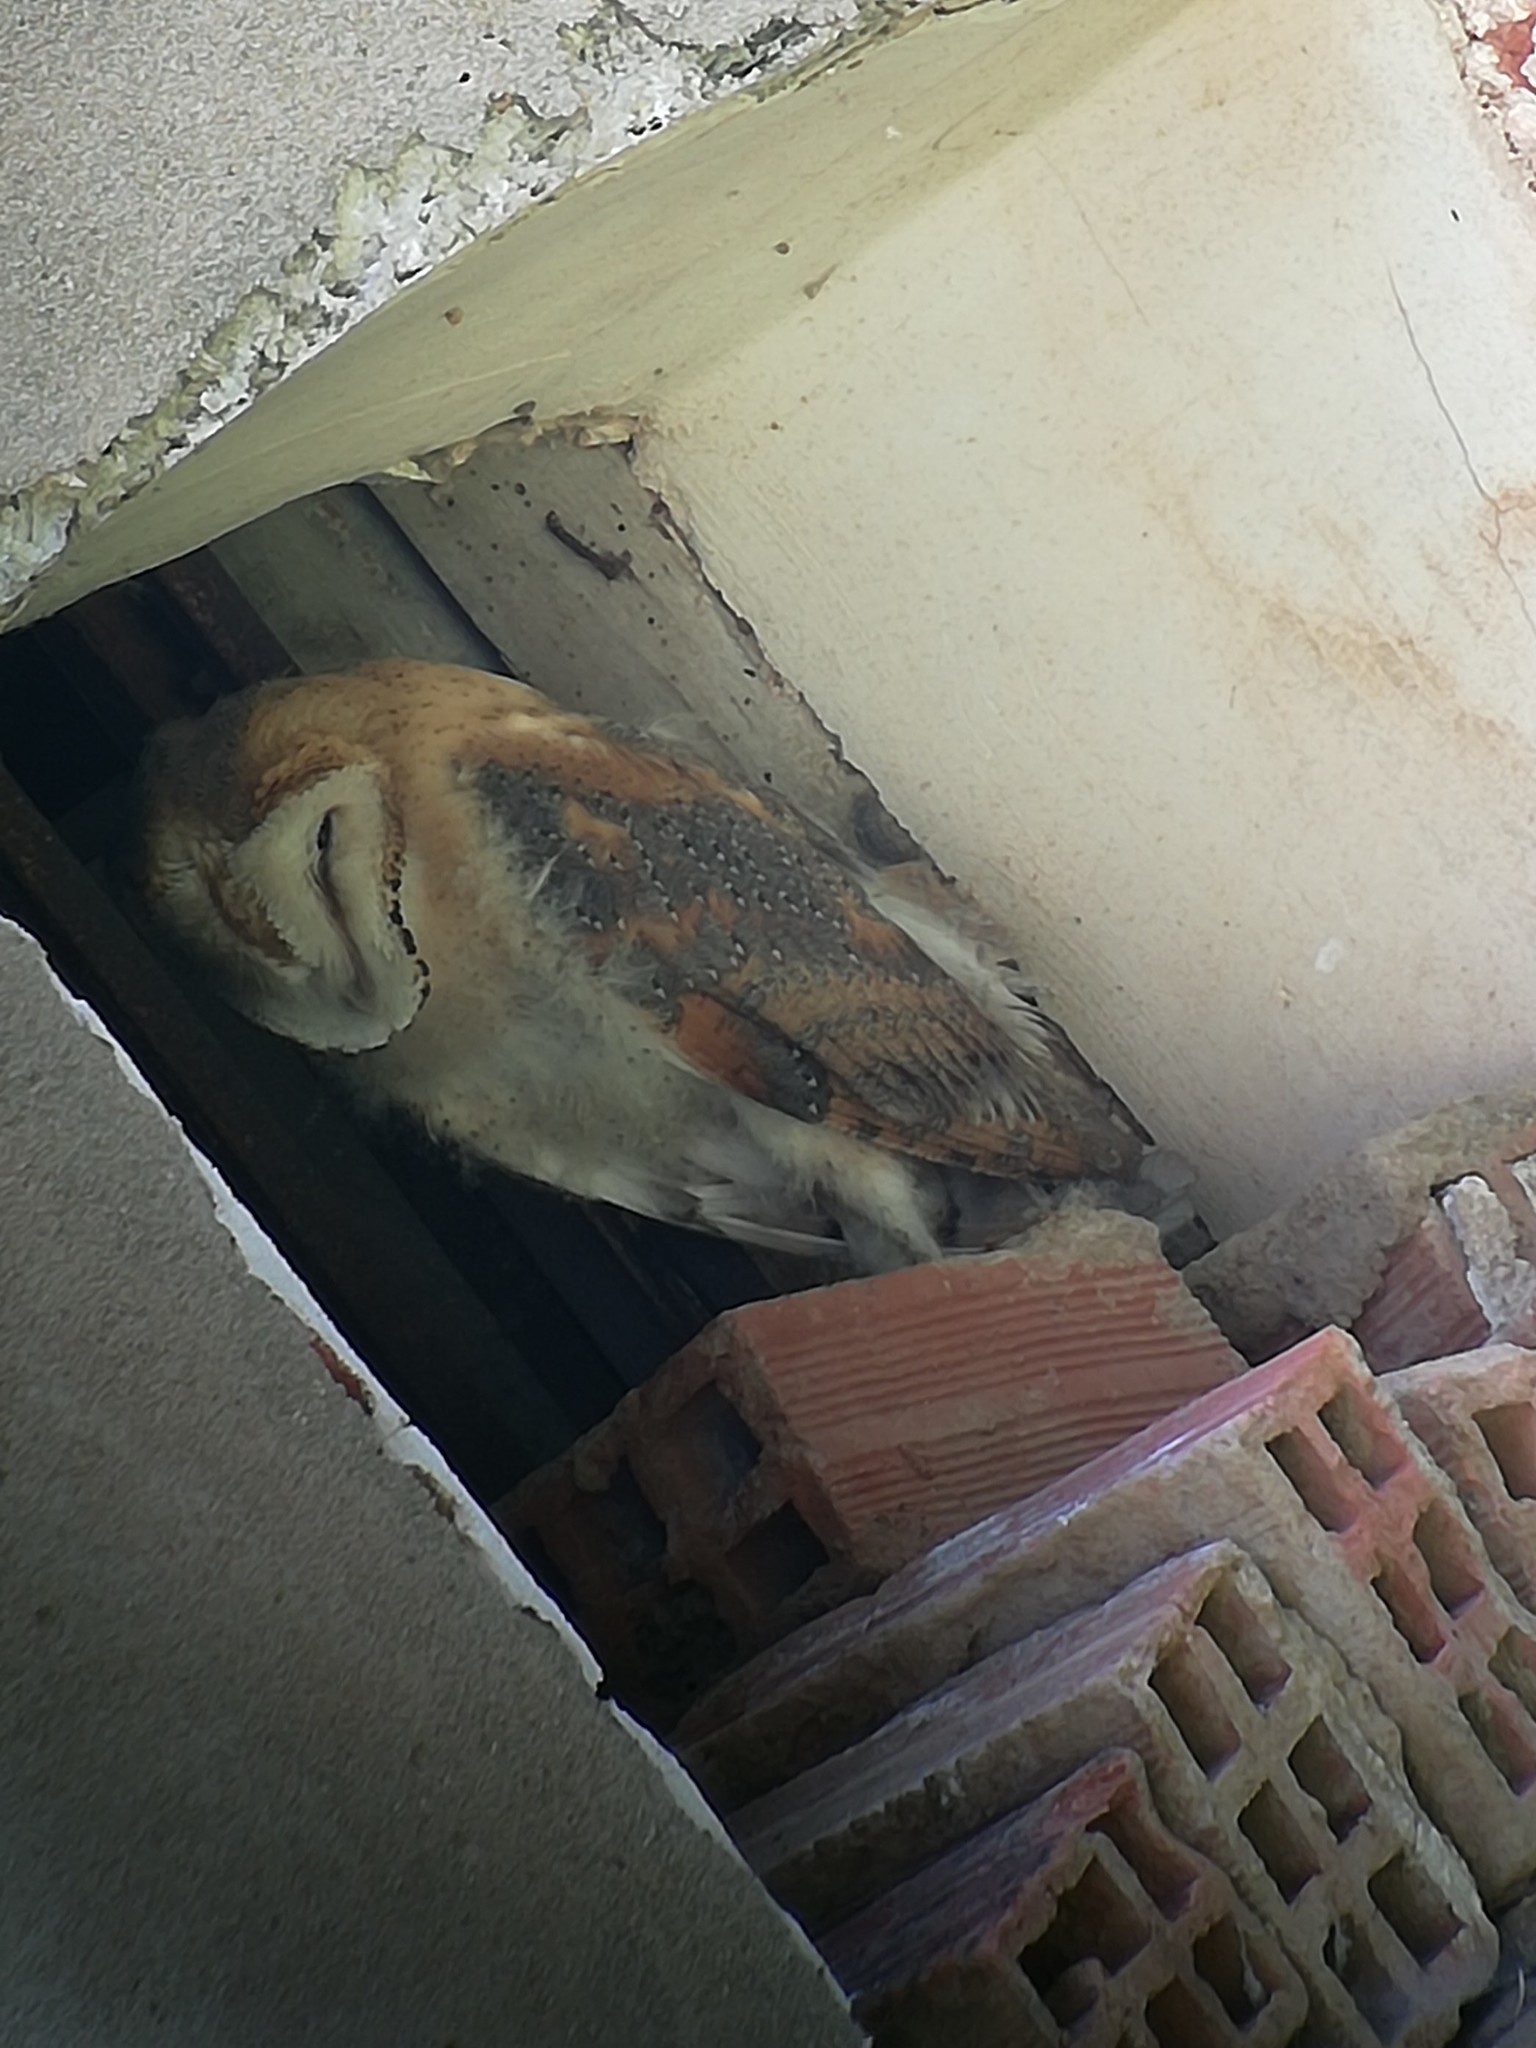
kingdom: Animalia
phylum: Chordata
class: Aves
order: Strigiformes
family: Tytonidae
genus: Tyto
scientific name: Tyto alba
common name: Barn owl
